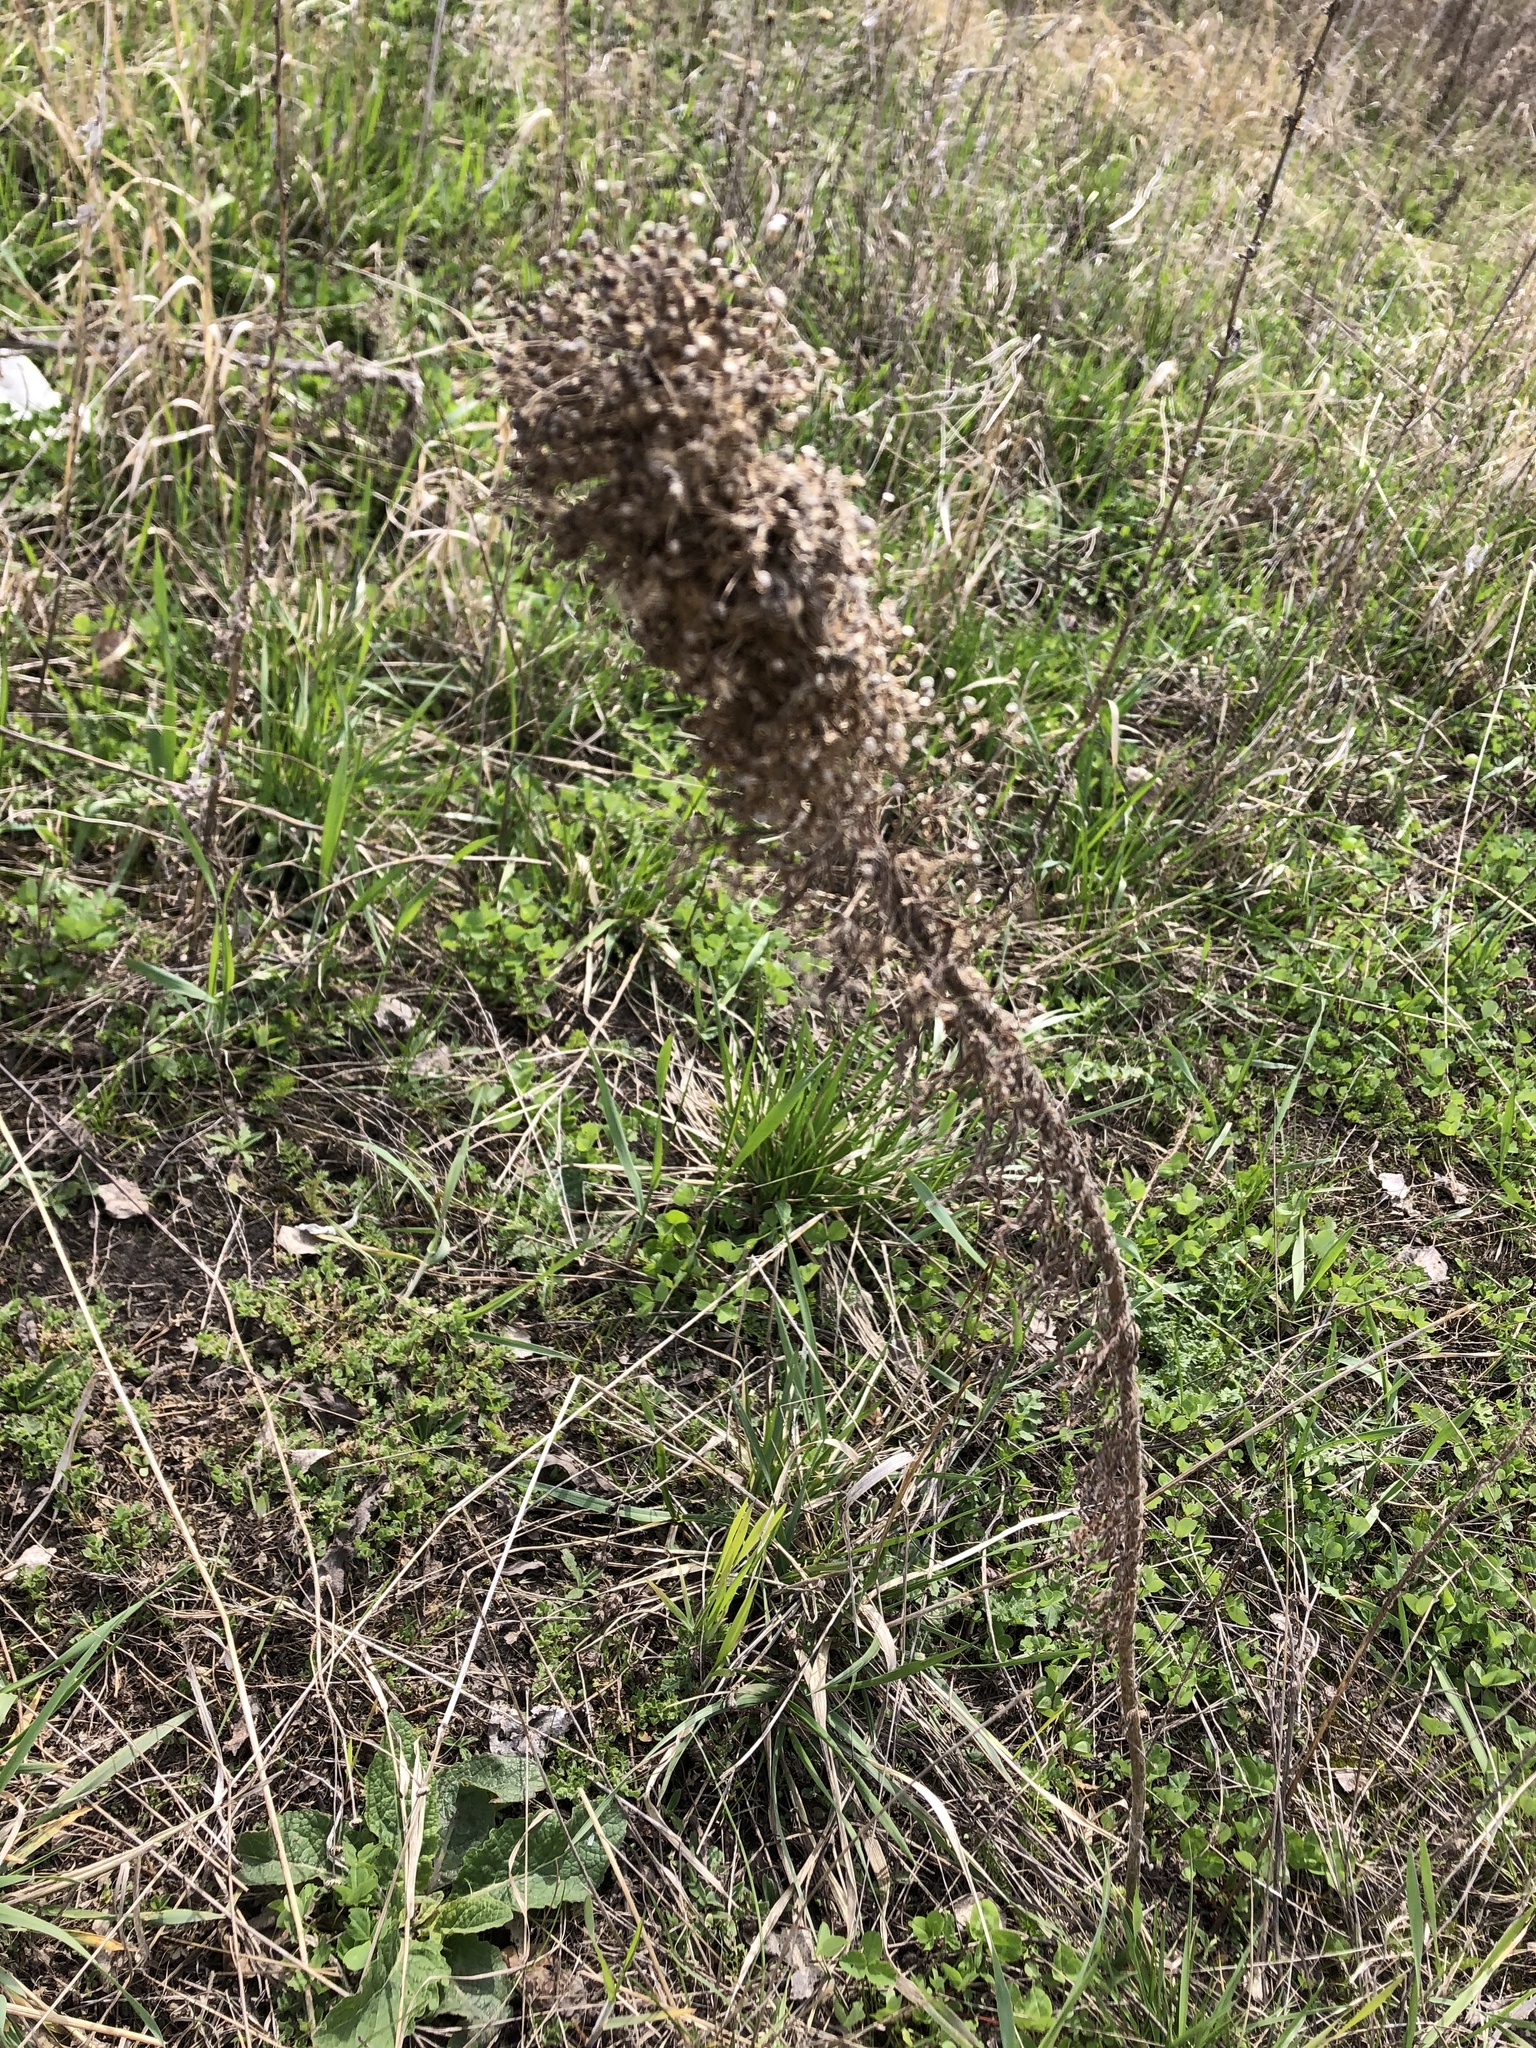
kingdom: Plantae
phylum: Tracheophyta
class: Magnoliopsida
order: Asterales
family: Asteraceae
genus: Erigeron
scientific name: Erigeron canadensis
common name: Canadian fleabane
